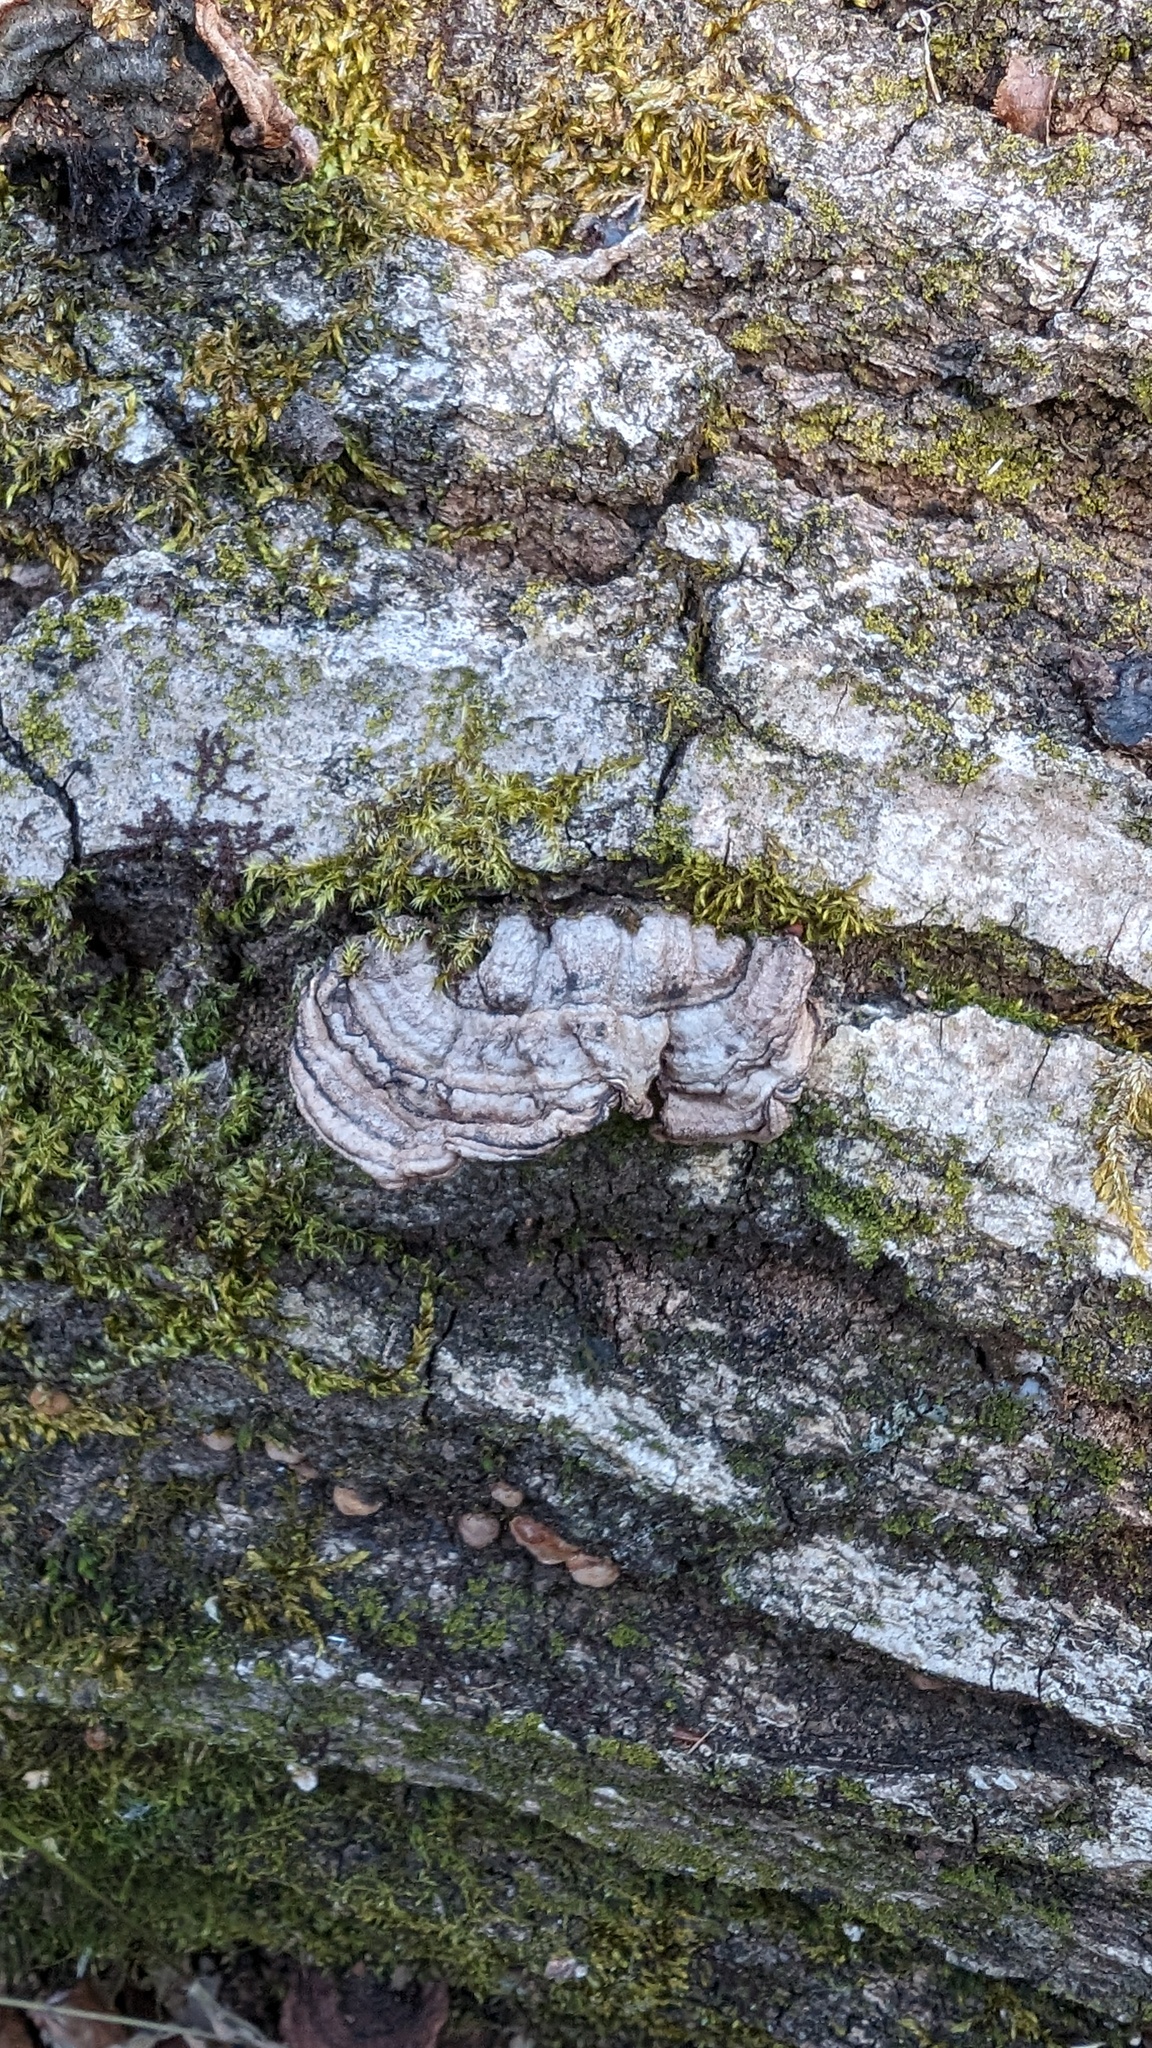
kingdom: Fungi
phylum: Basidiomycota
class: Agaricomycetes
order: Corticiales
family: Punctulariaceae
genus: Punctularia
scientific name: Punctularia strigosozonata
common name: White-rot fungus
